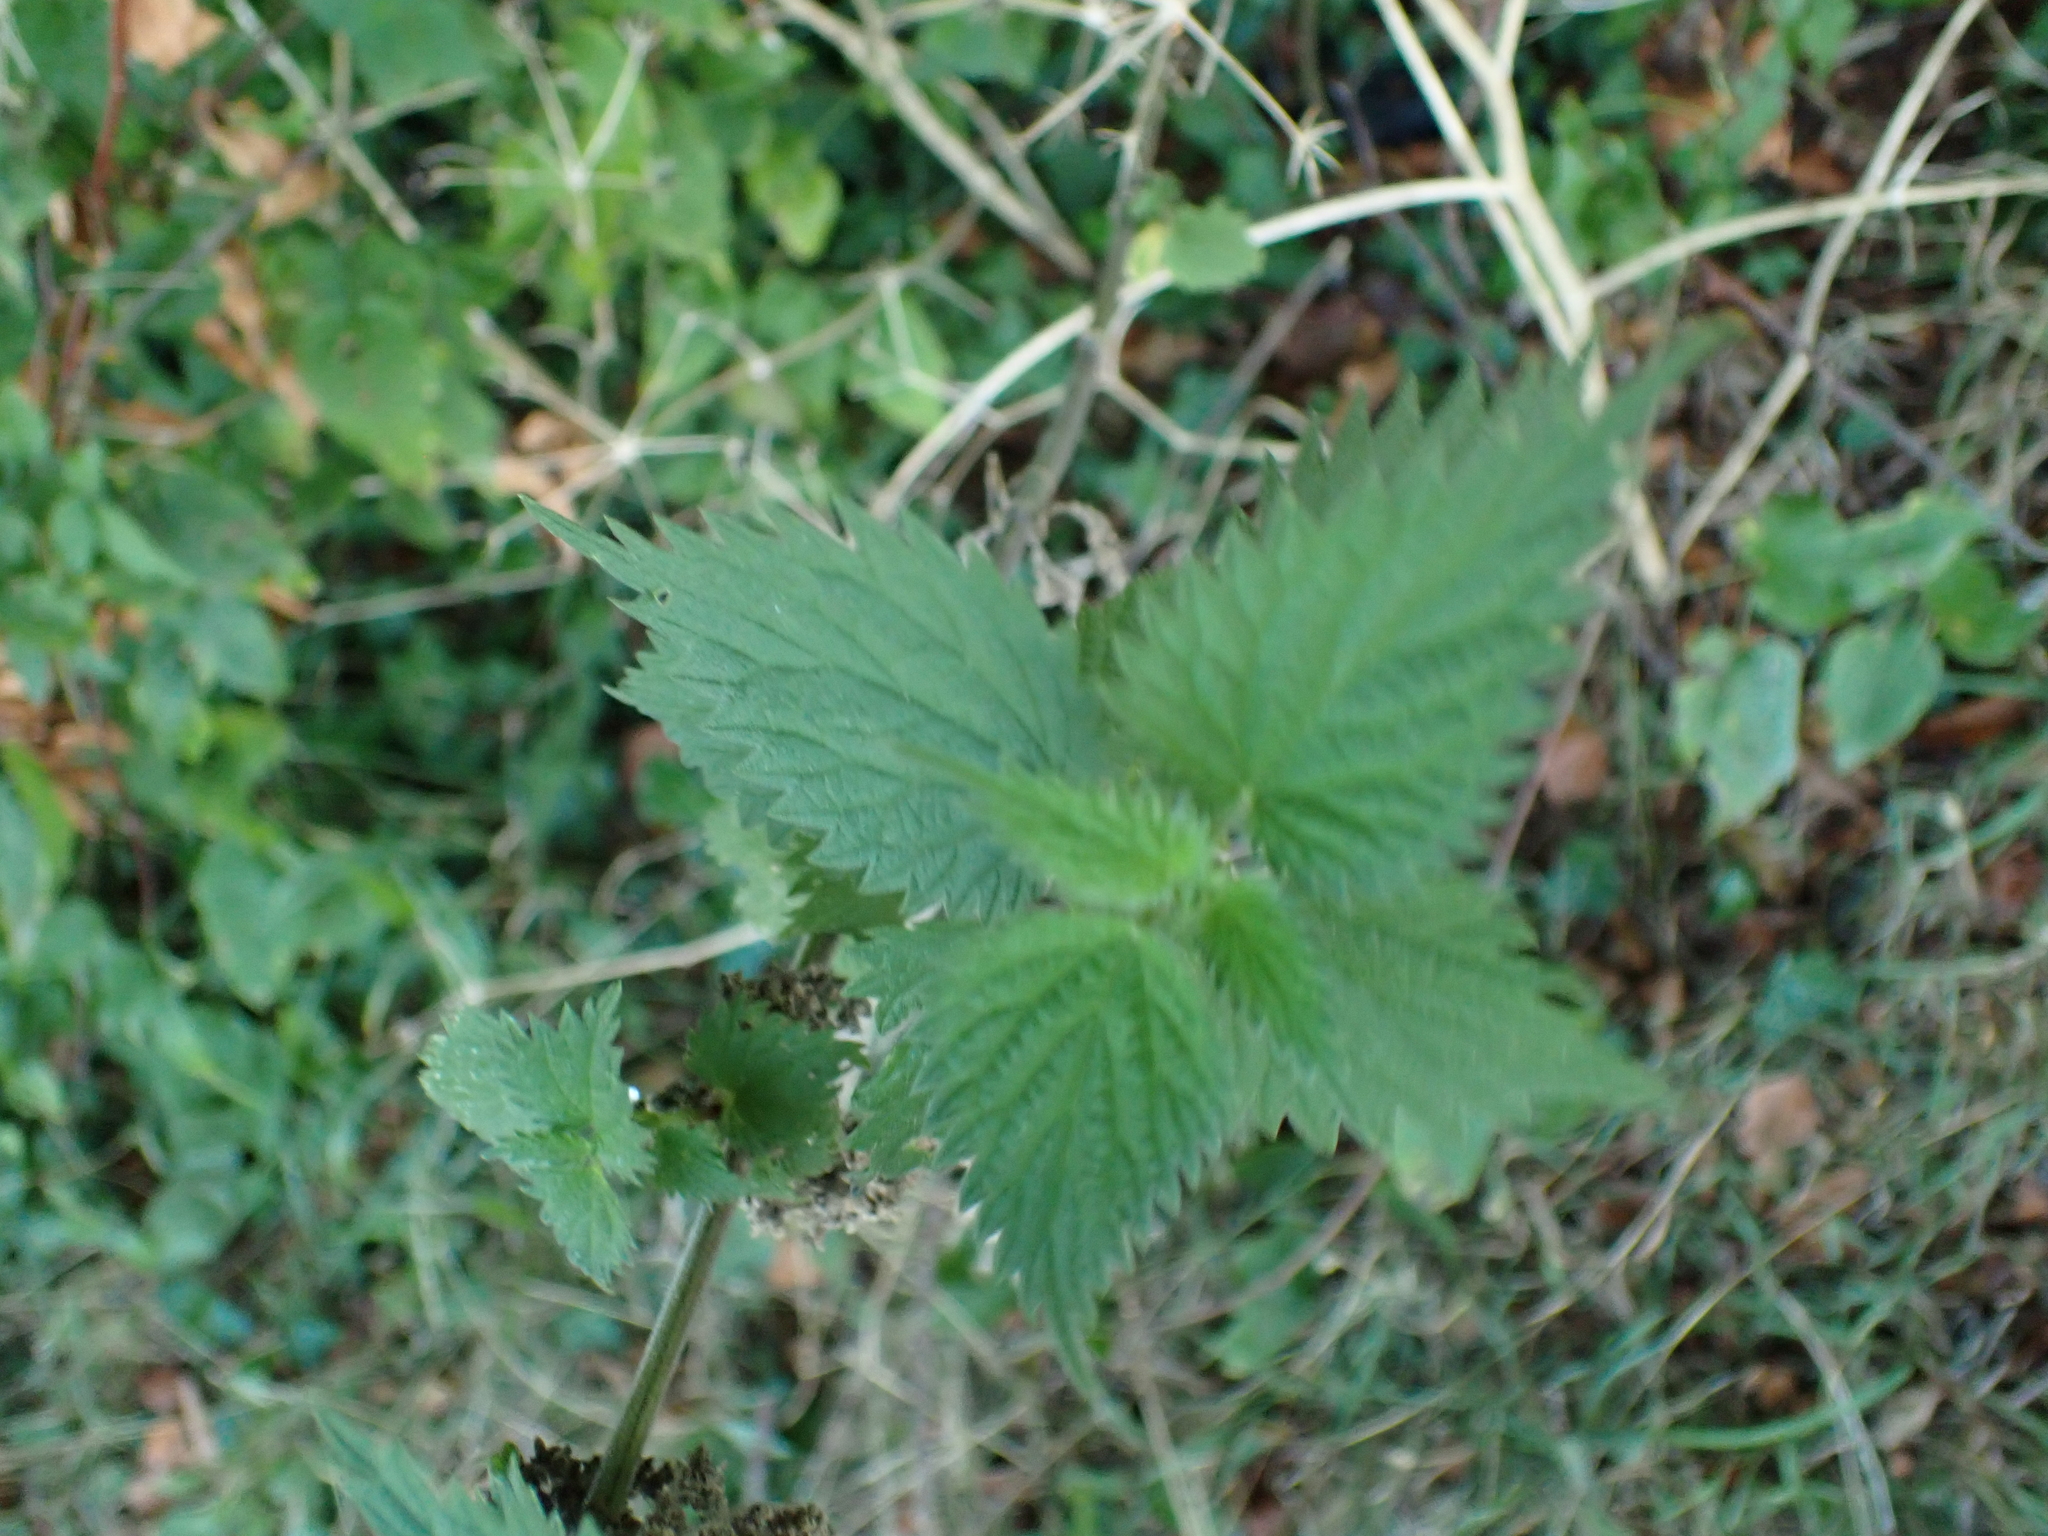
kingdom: Plantae
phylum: Tracheophyta
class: Magnoliopsida
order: Rosales
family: Urticaceae
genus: Urtica
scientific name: Urtica dioica
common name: Common nettle
